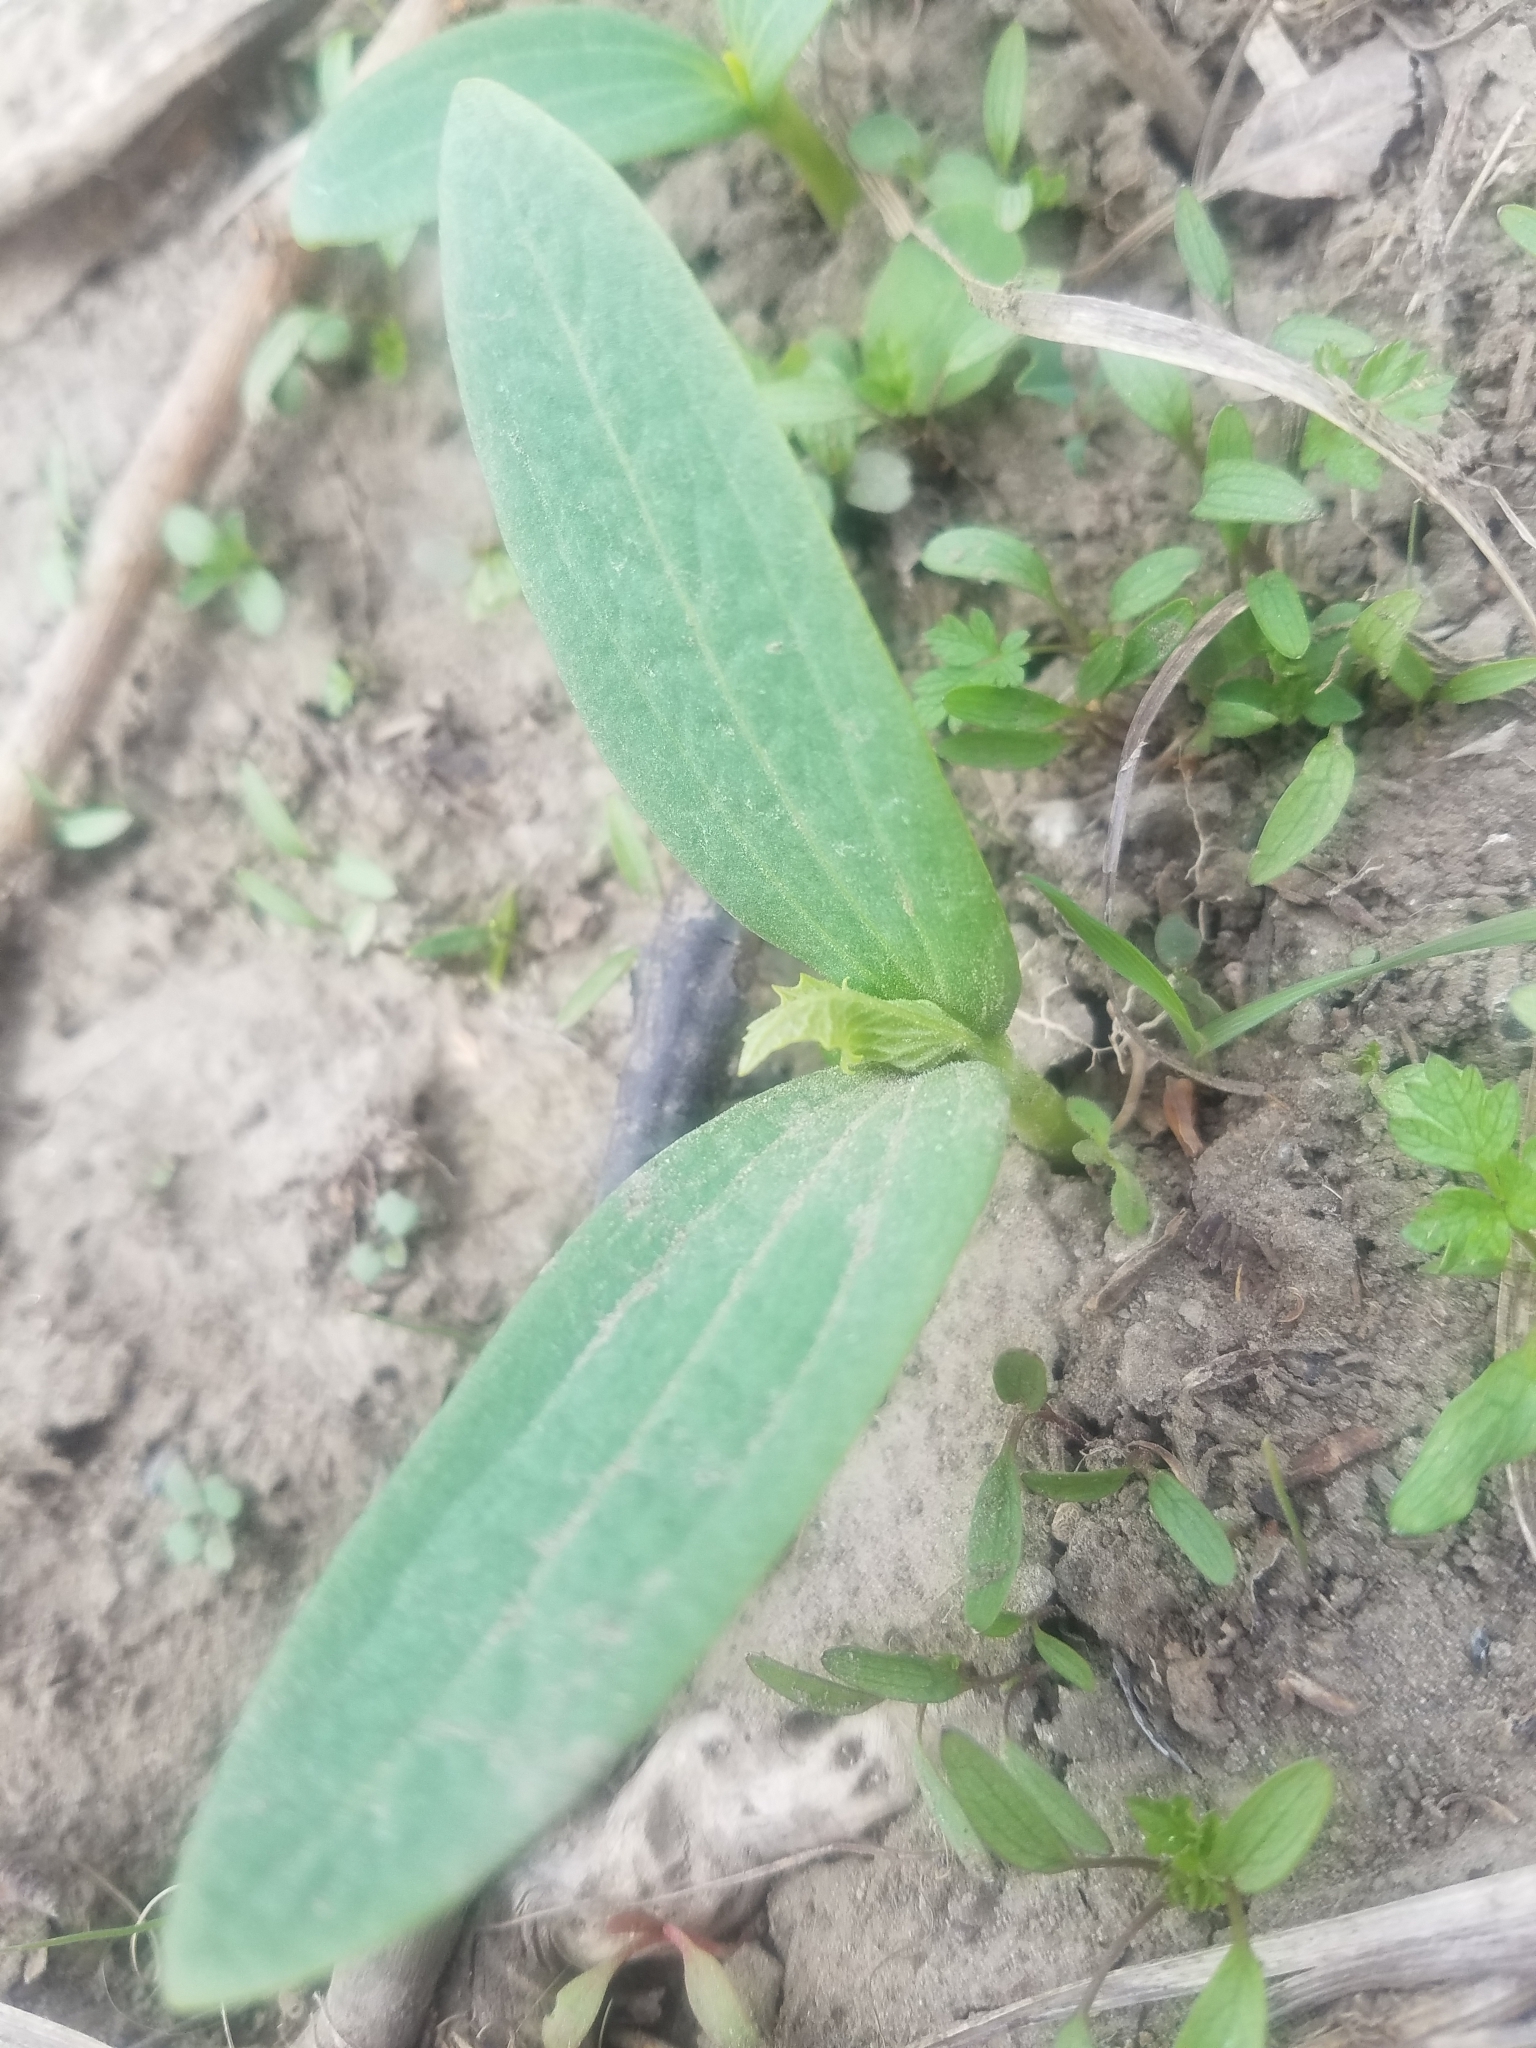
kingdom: Plantae
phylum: Tracheophyta
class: Magnoliopsida
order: Cucurbitales
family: Cucurbitaceae
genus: Echinocystis
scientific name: Echinocystis lobata
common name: Wild cucumber
